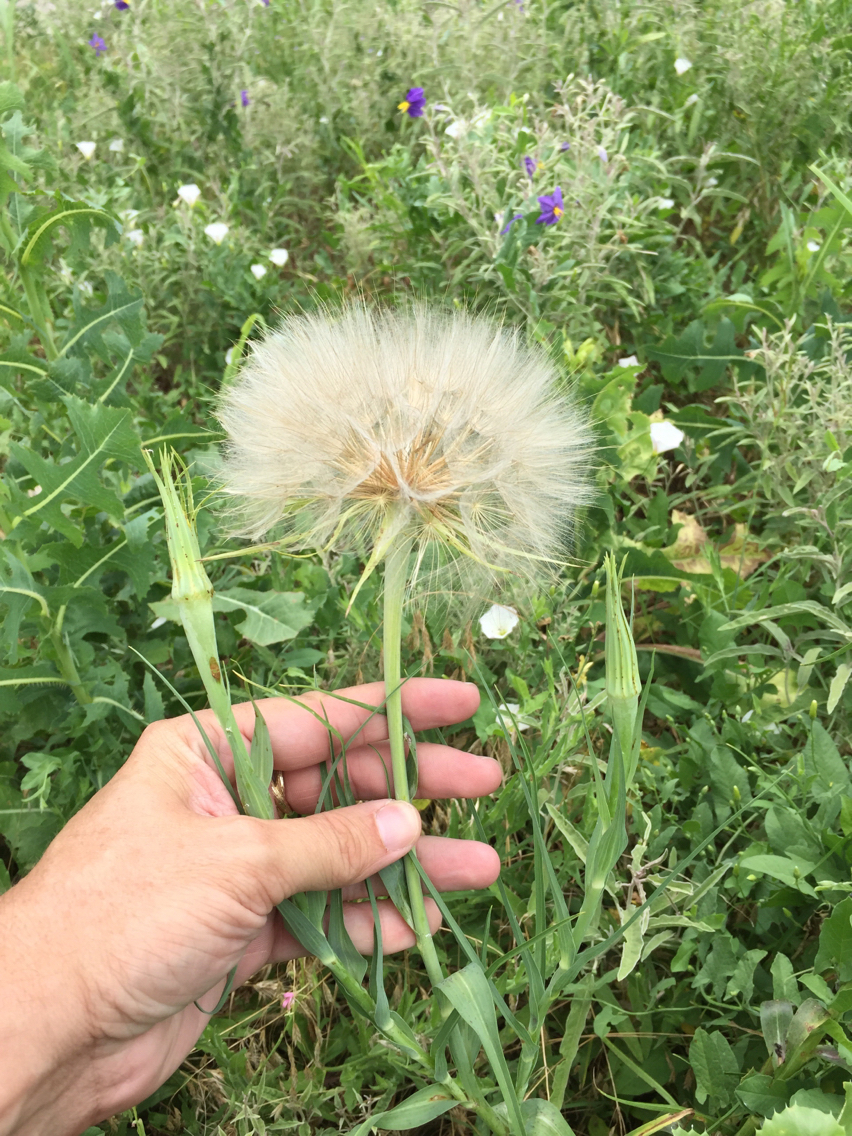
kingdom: Plantae
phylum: Tracheophyta
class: Magnoliopsida
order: Asterales
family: Asteraceae
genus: Tragopogon
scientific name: Tragopogon dubius
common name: Yellow salsify
